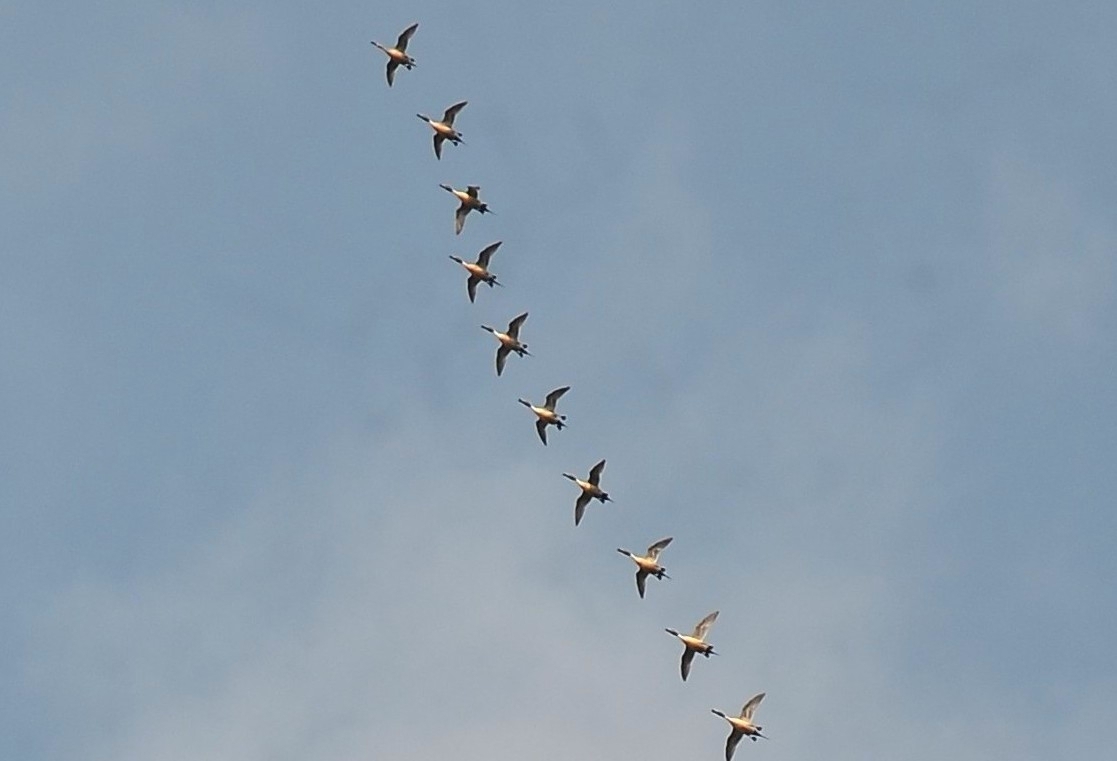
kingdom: Animalia
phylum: Chordata
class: Aves
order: Anseriformes
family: Anatidae
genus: Anas
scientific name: Anas acuta
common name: Northern pintail
